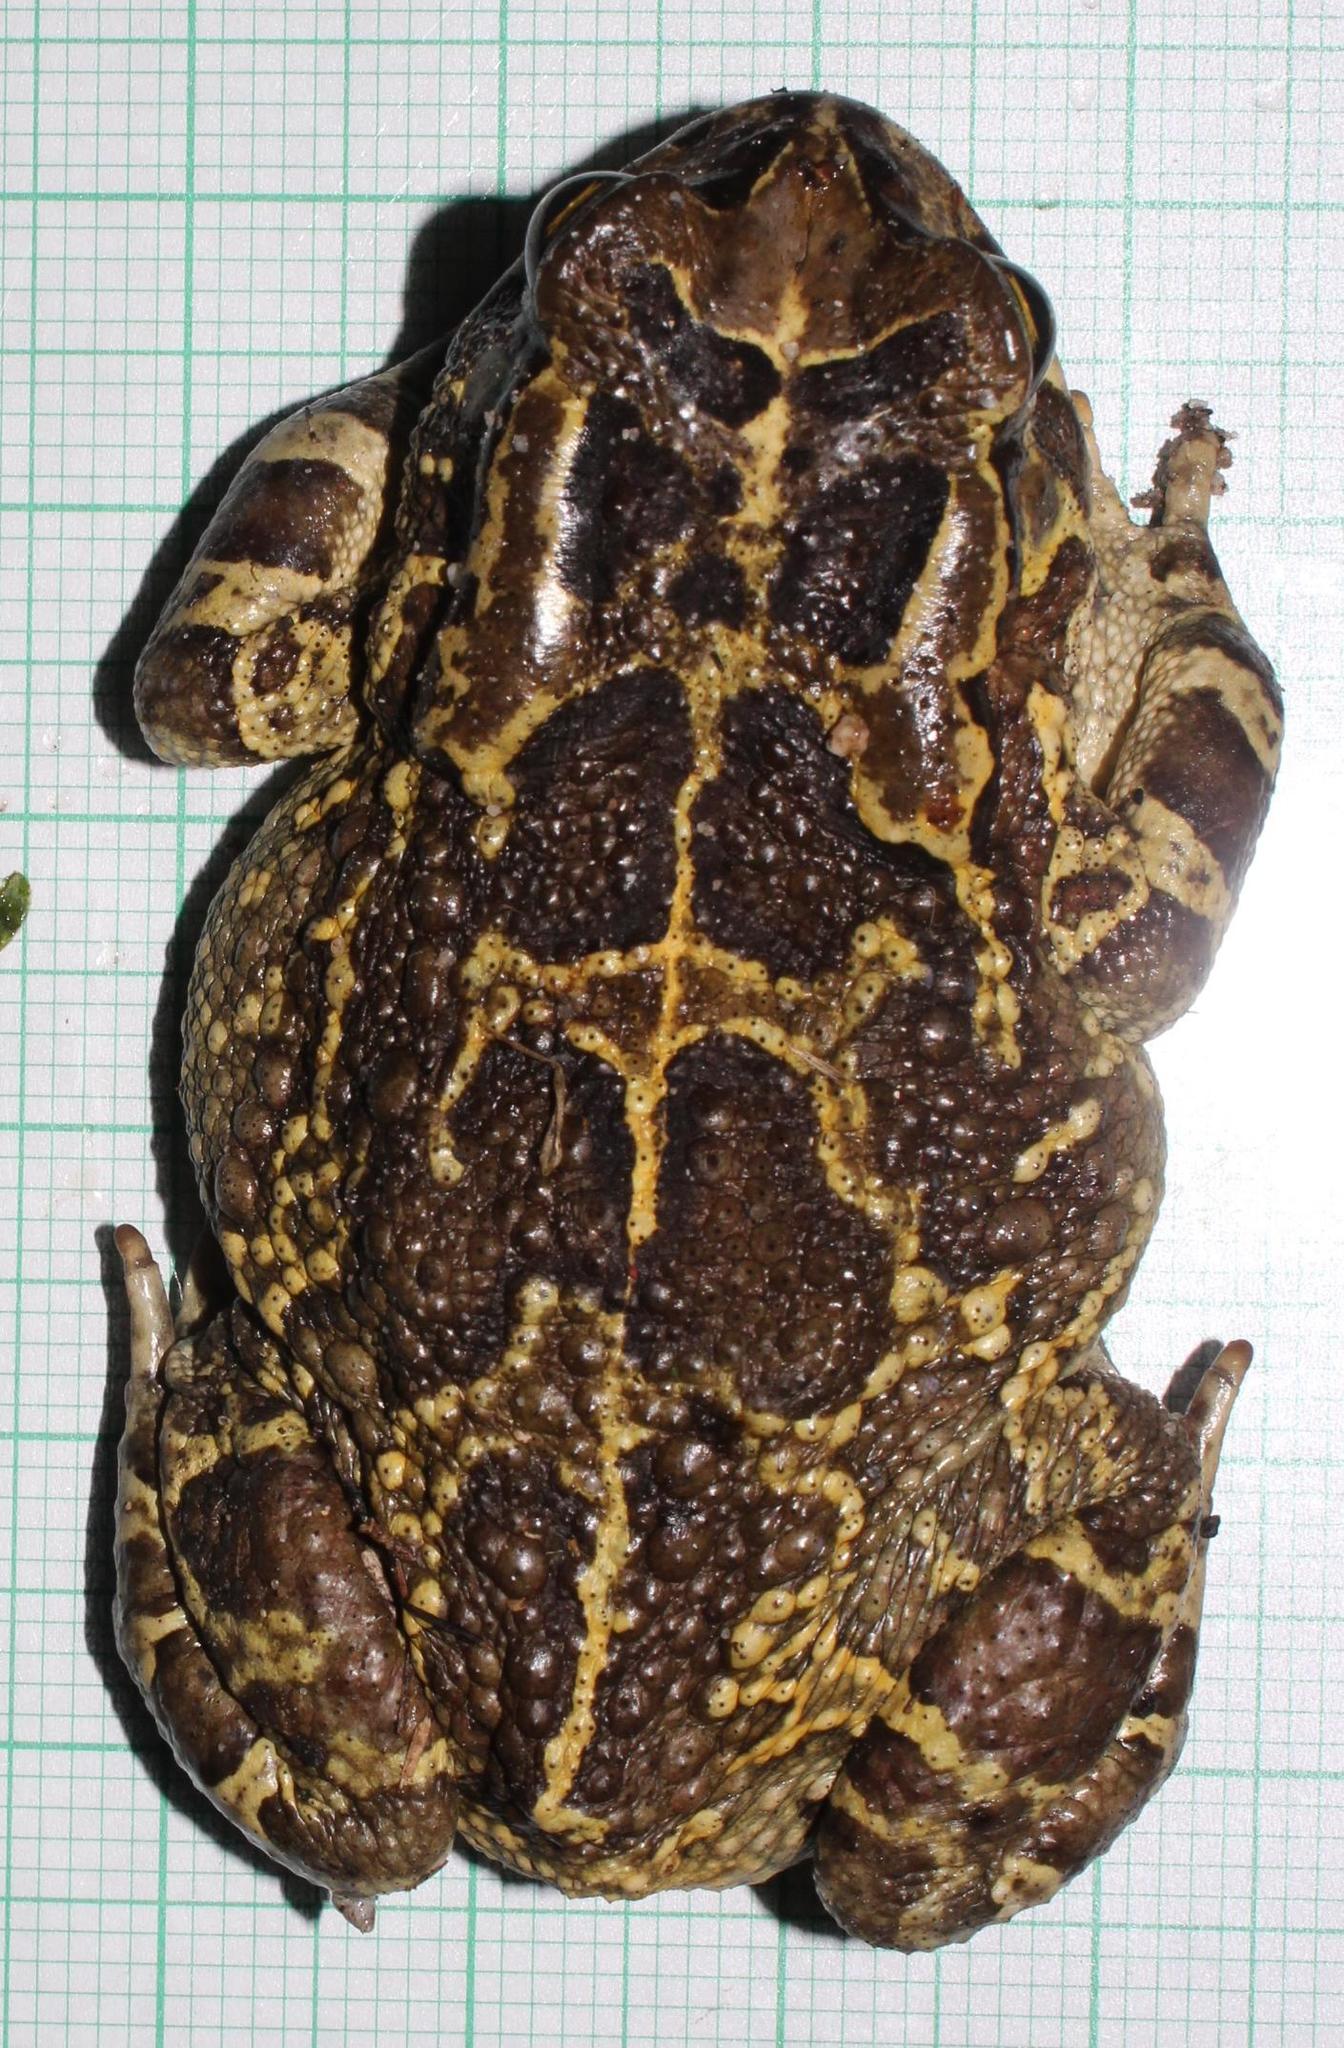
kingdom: Animalia
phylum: Chordata
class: Amphibia
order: Anura
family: Bufonidae
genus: Sclerophrys
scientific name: Sclerophrys pantherina
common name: Panther toad
